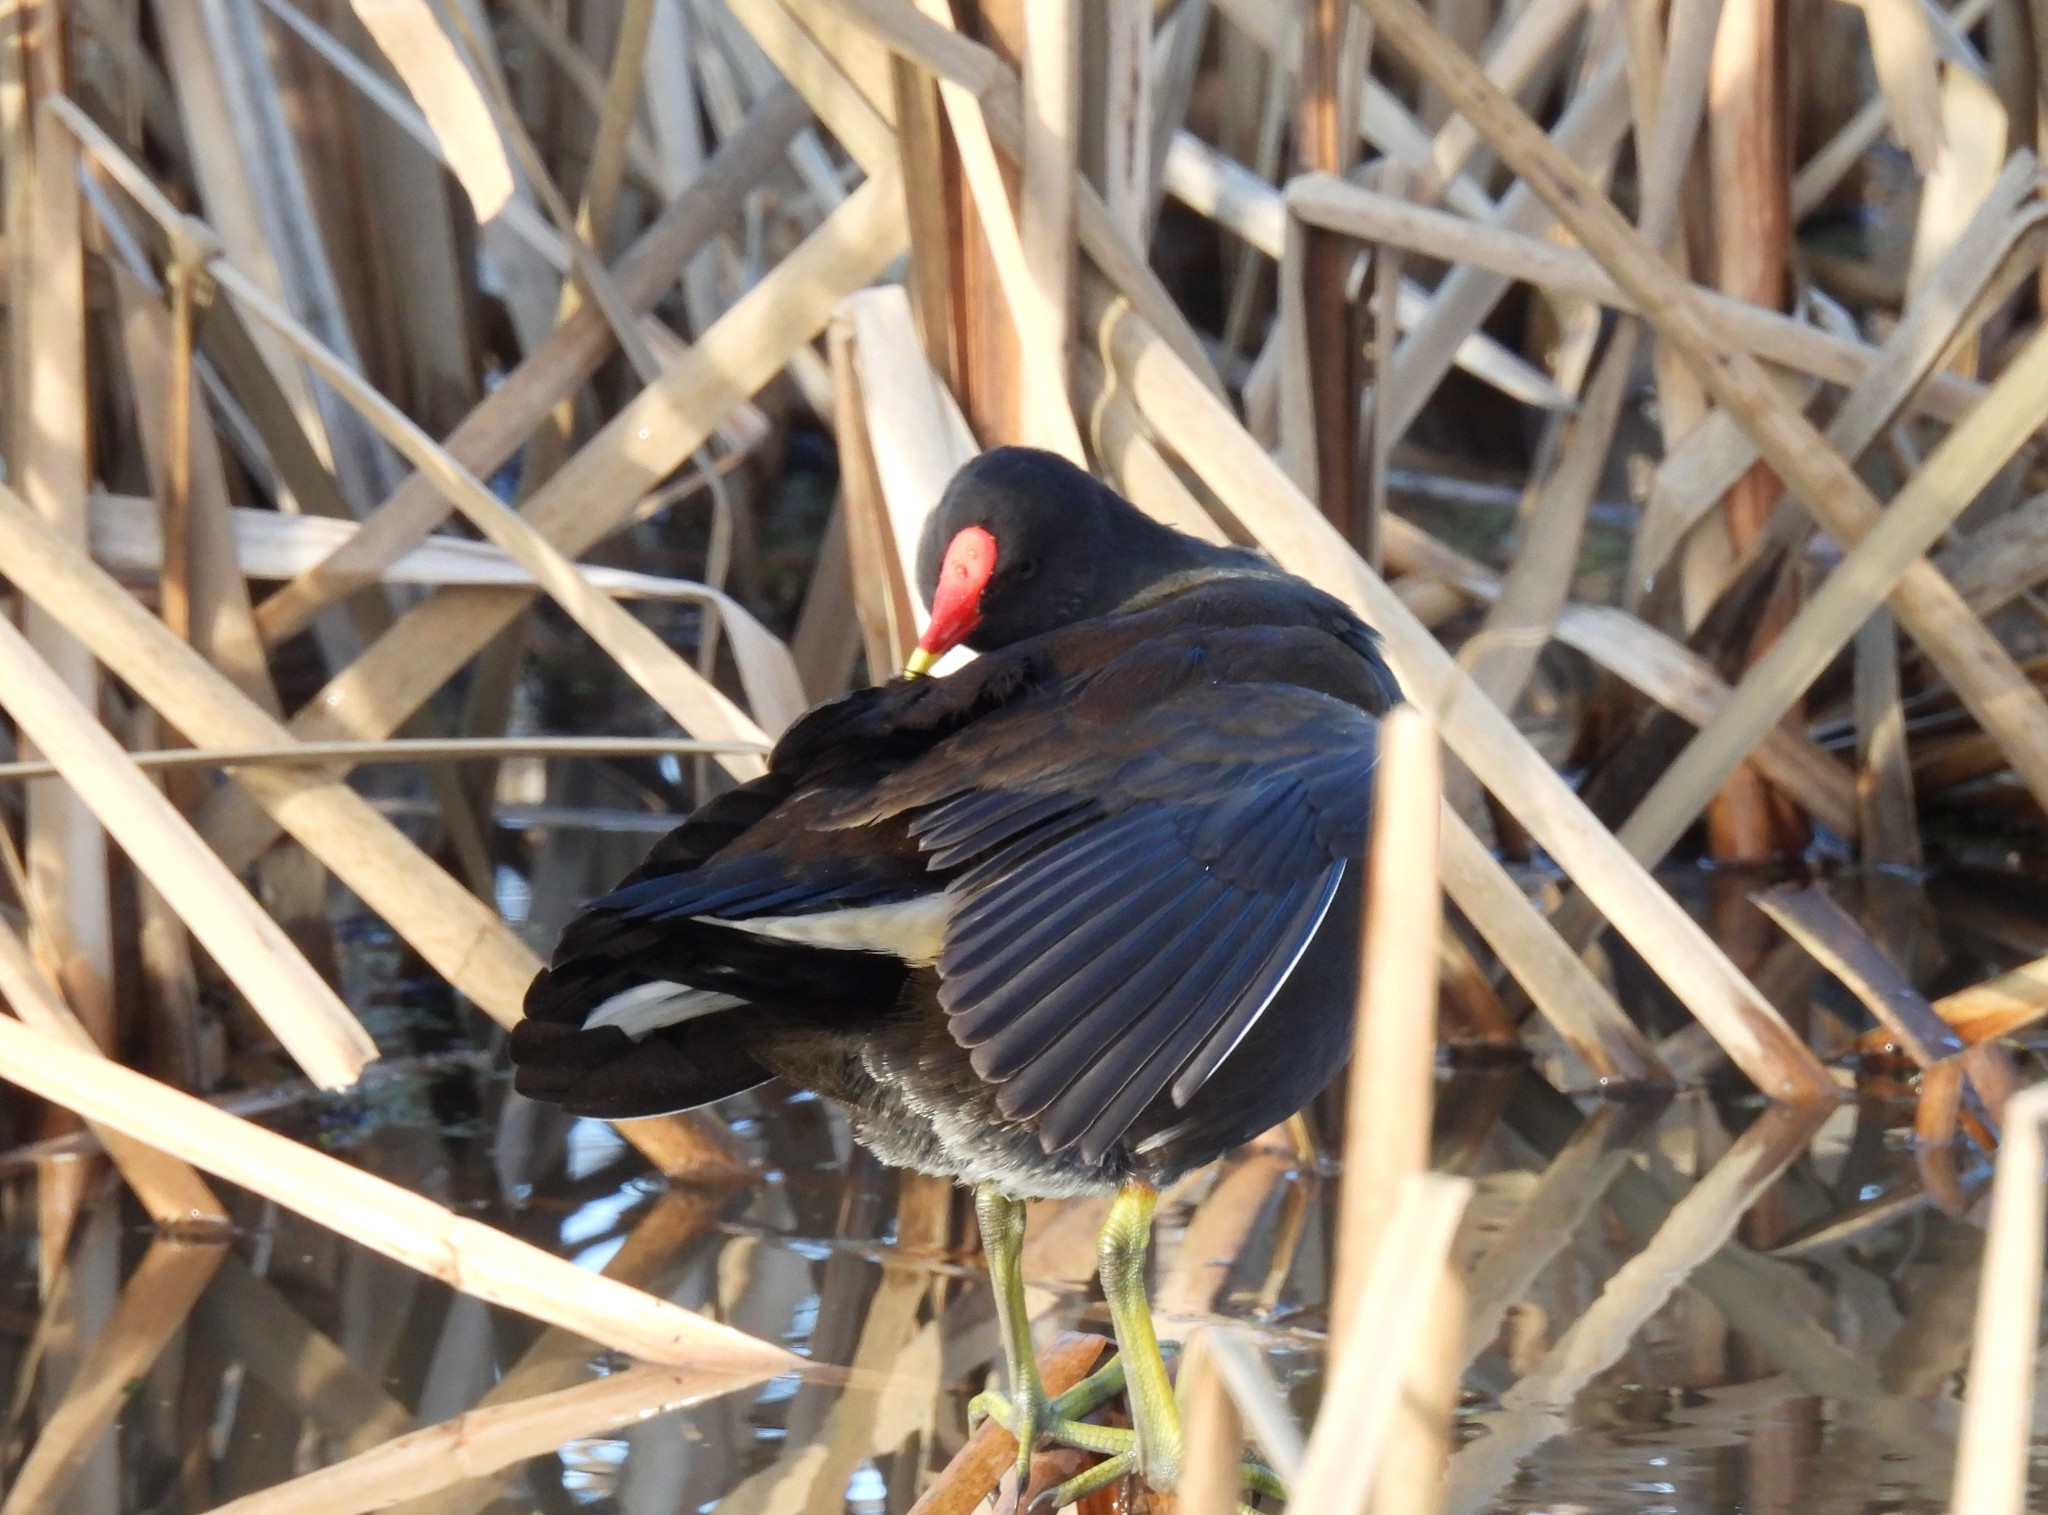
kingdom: Animalia
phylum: Chordata
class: Aves
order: Gruiformes
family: Rallidae
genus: Gallinula
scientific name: Gallinula chloropus
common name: Common moorhen
